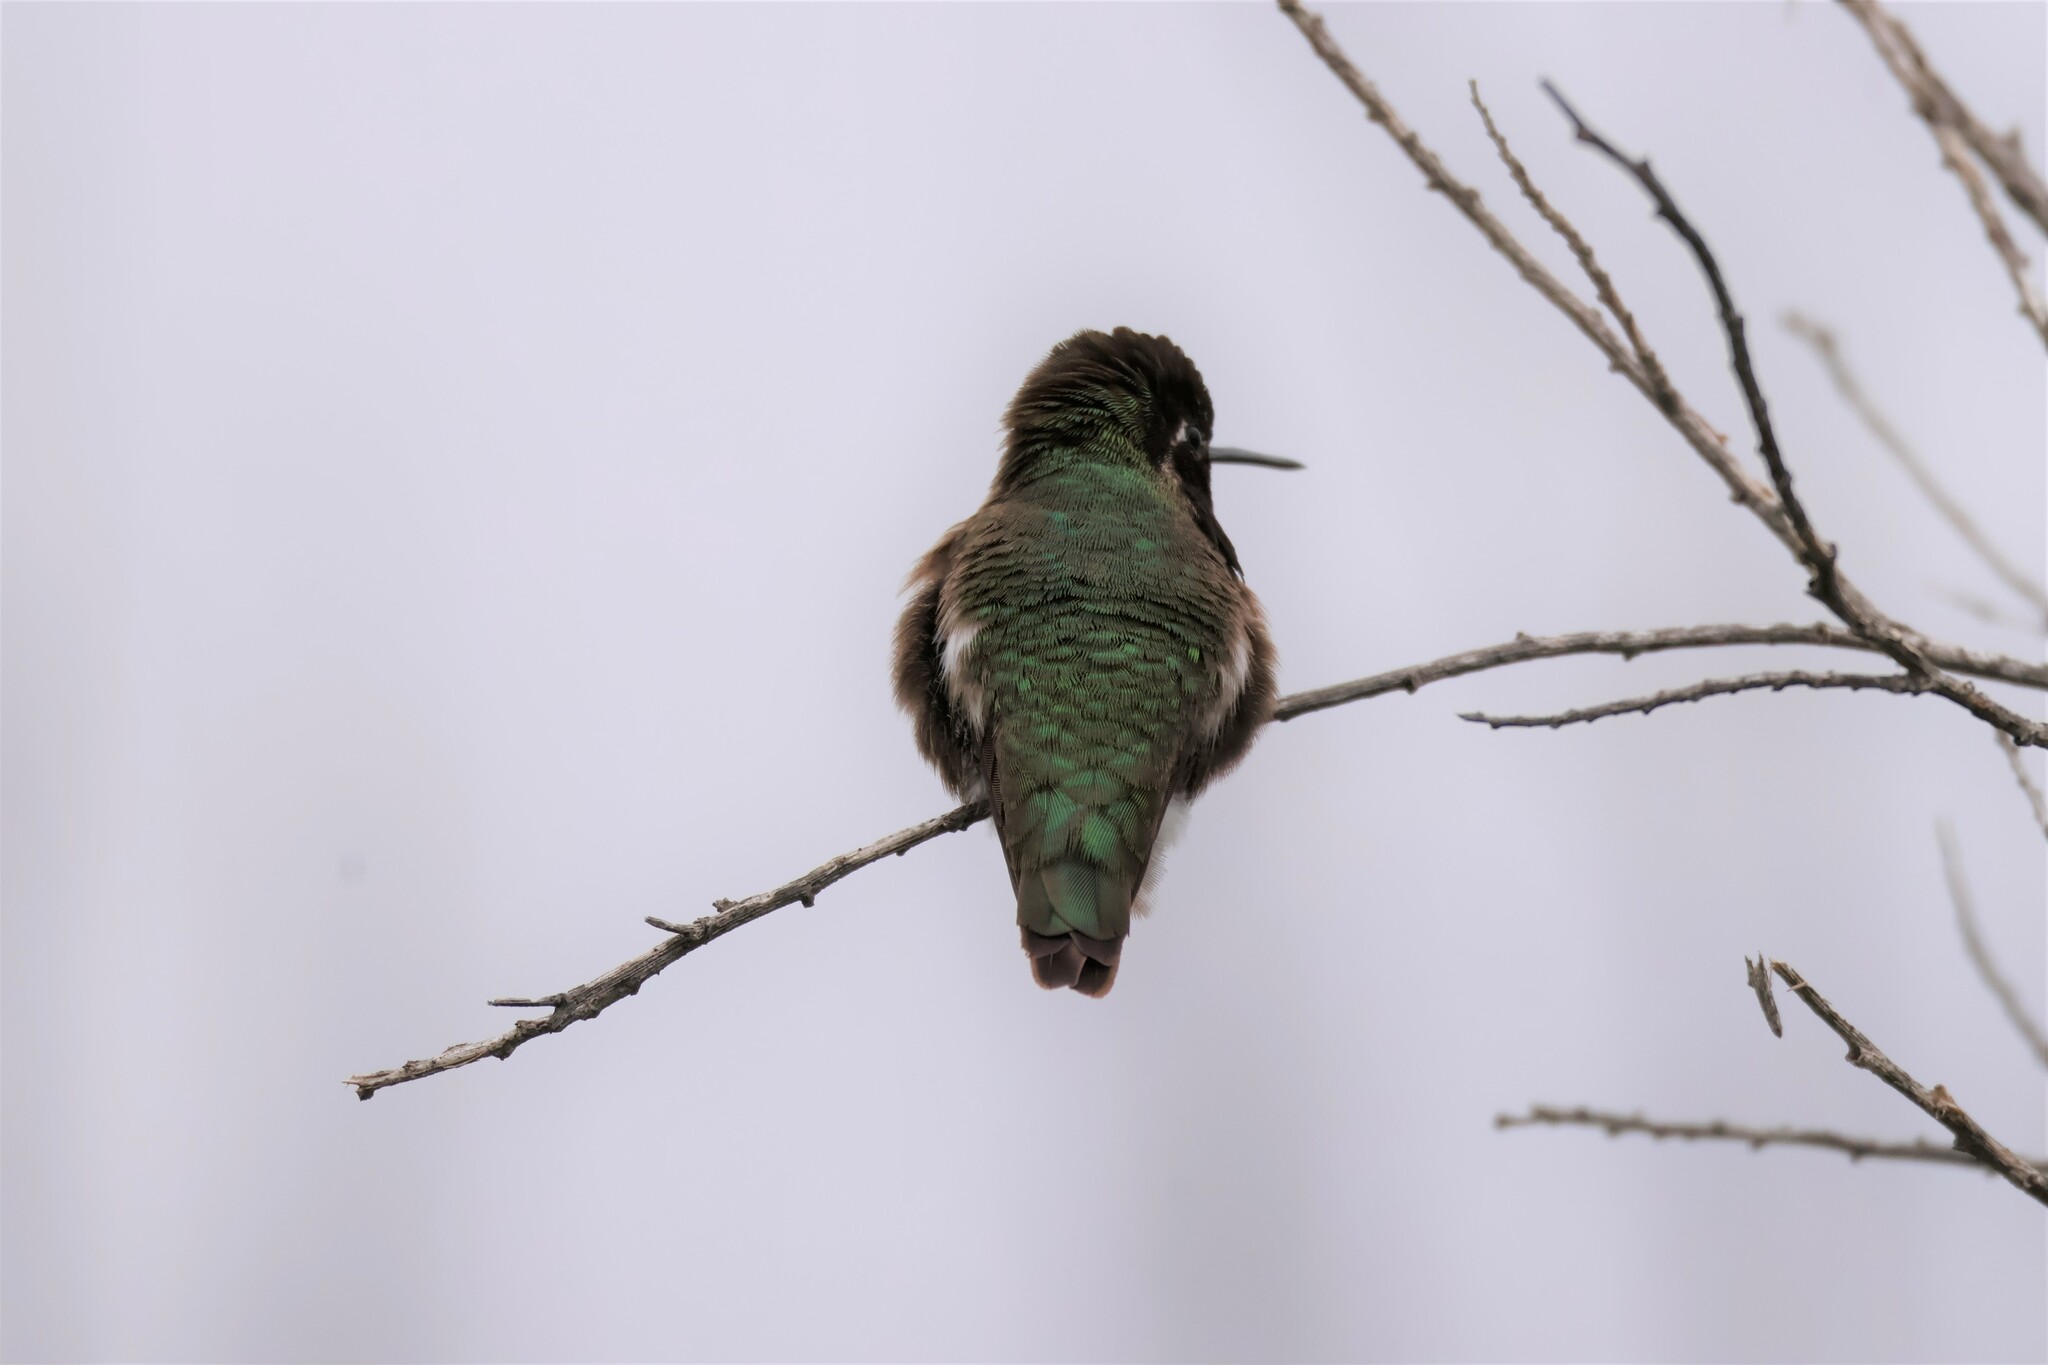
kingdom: Animalia
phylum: Chordata
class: Aves
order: Apodiformes
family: Trochilidae
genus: Calypte
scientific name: Calypte anna
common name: Anna's hummingbird
